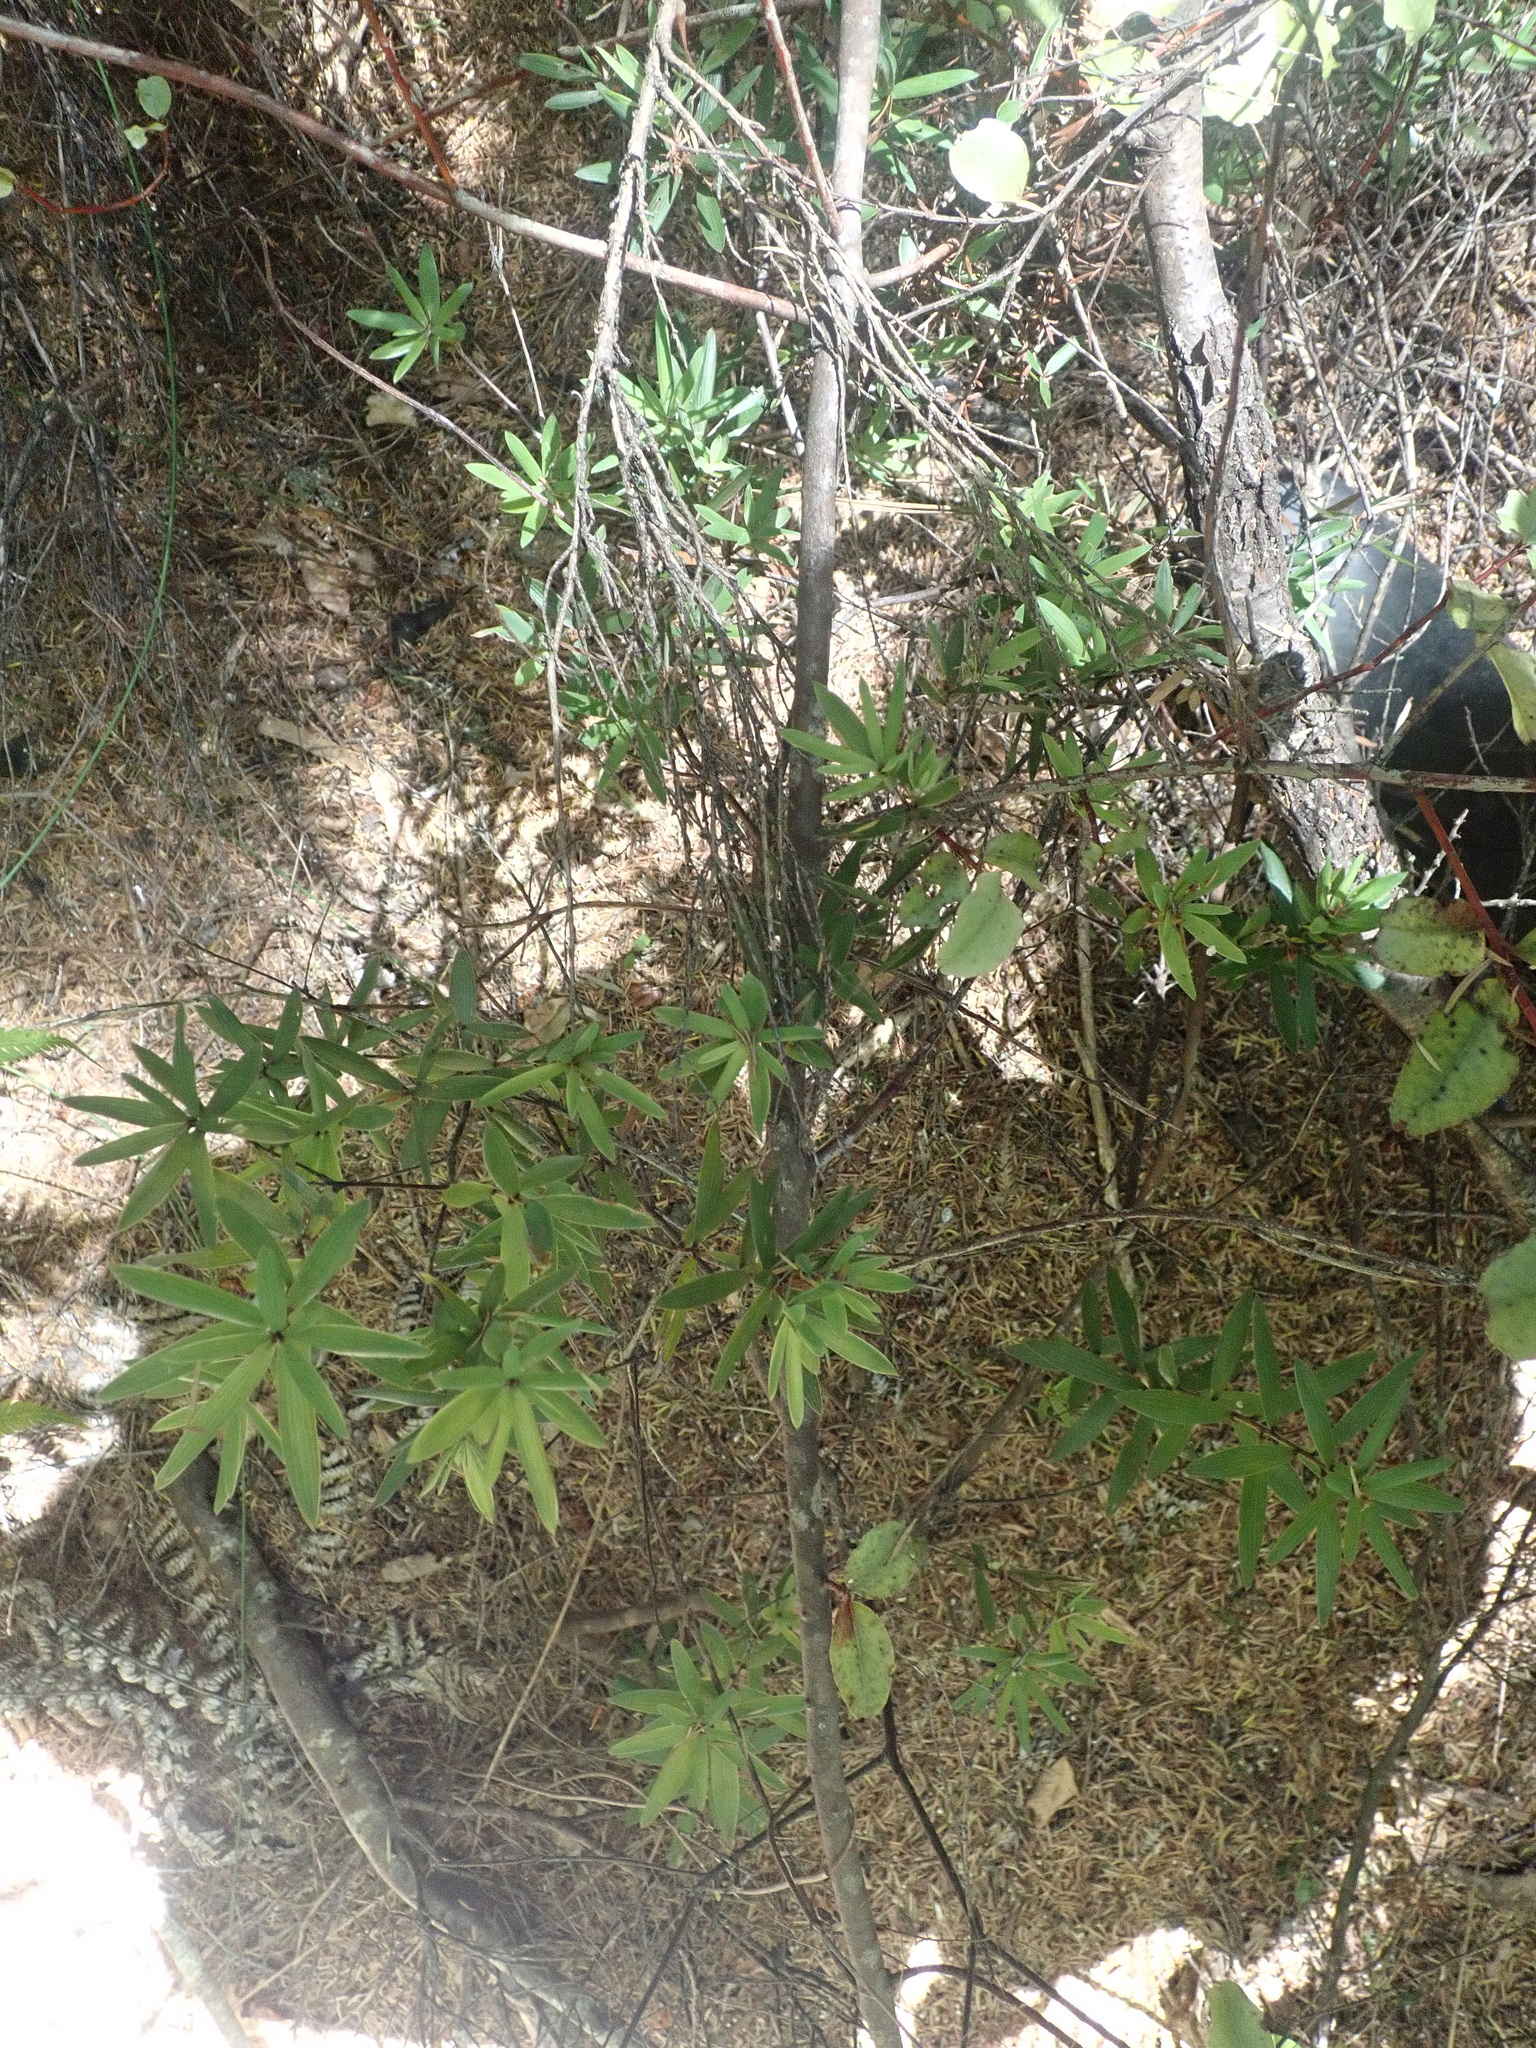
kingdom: Plantae
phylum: Tracheophyta
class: Magnoliopsida
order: Ericales
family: Ericaceae
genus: Leucopogon
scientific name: Leucopogon fasciculatus
